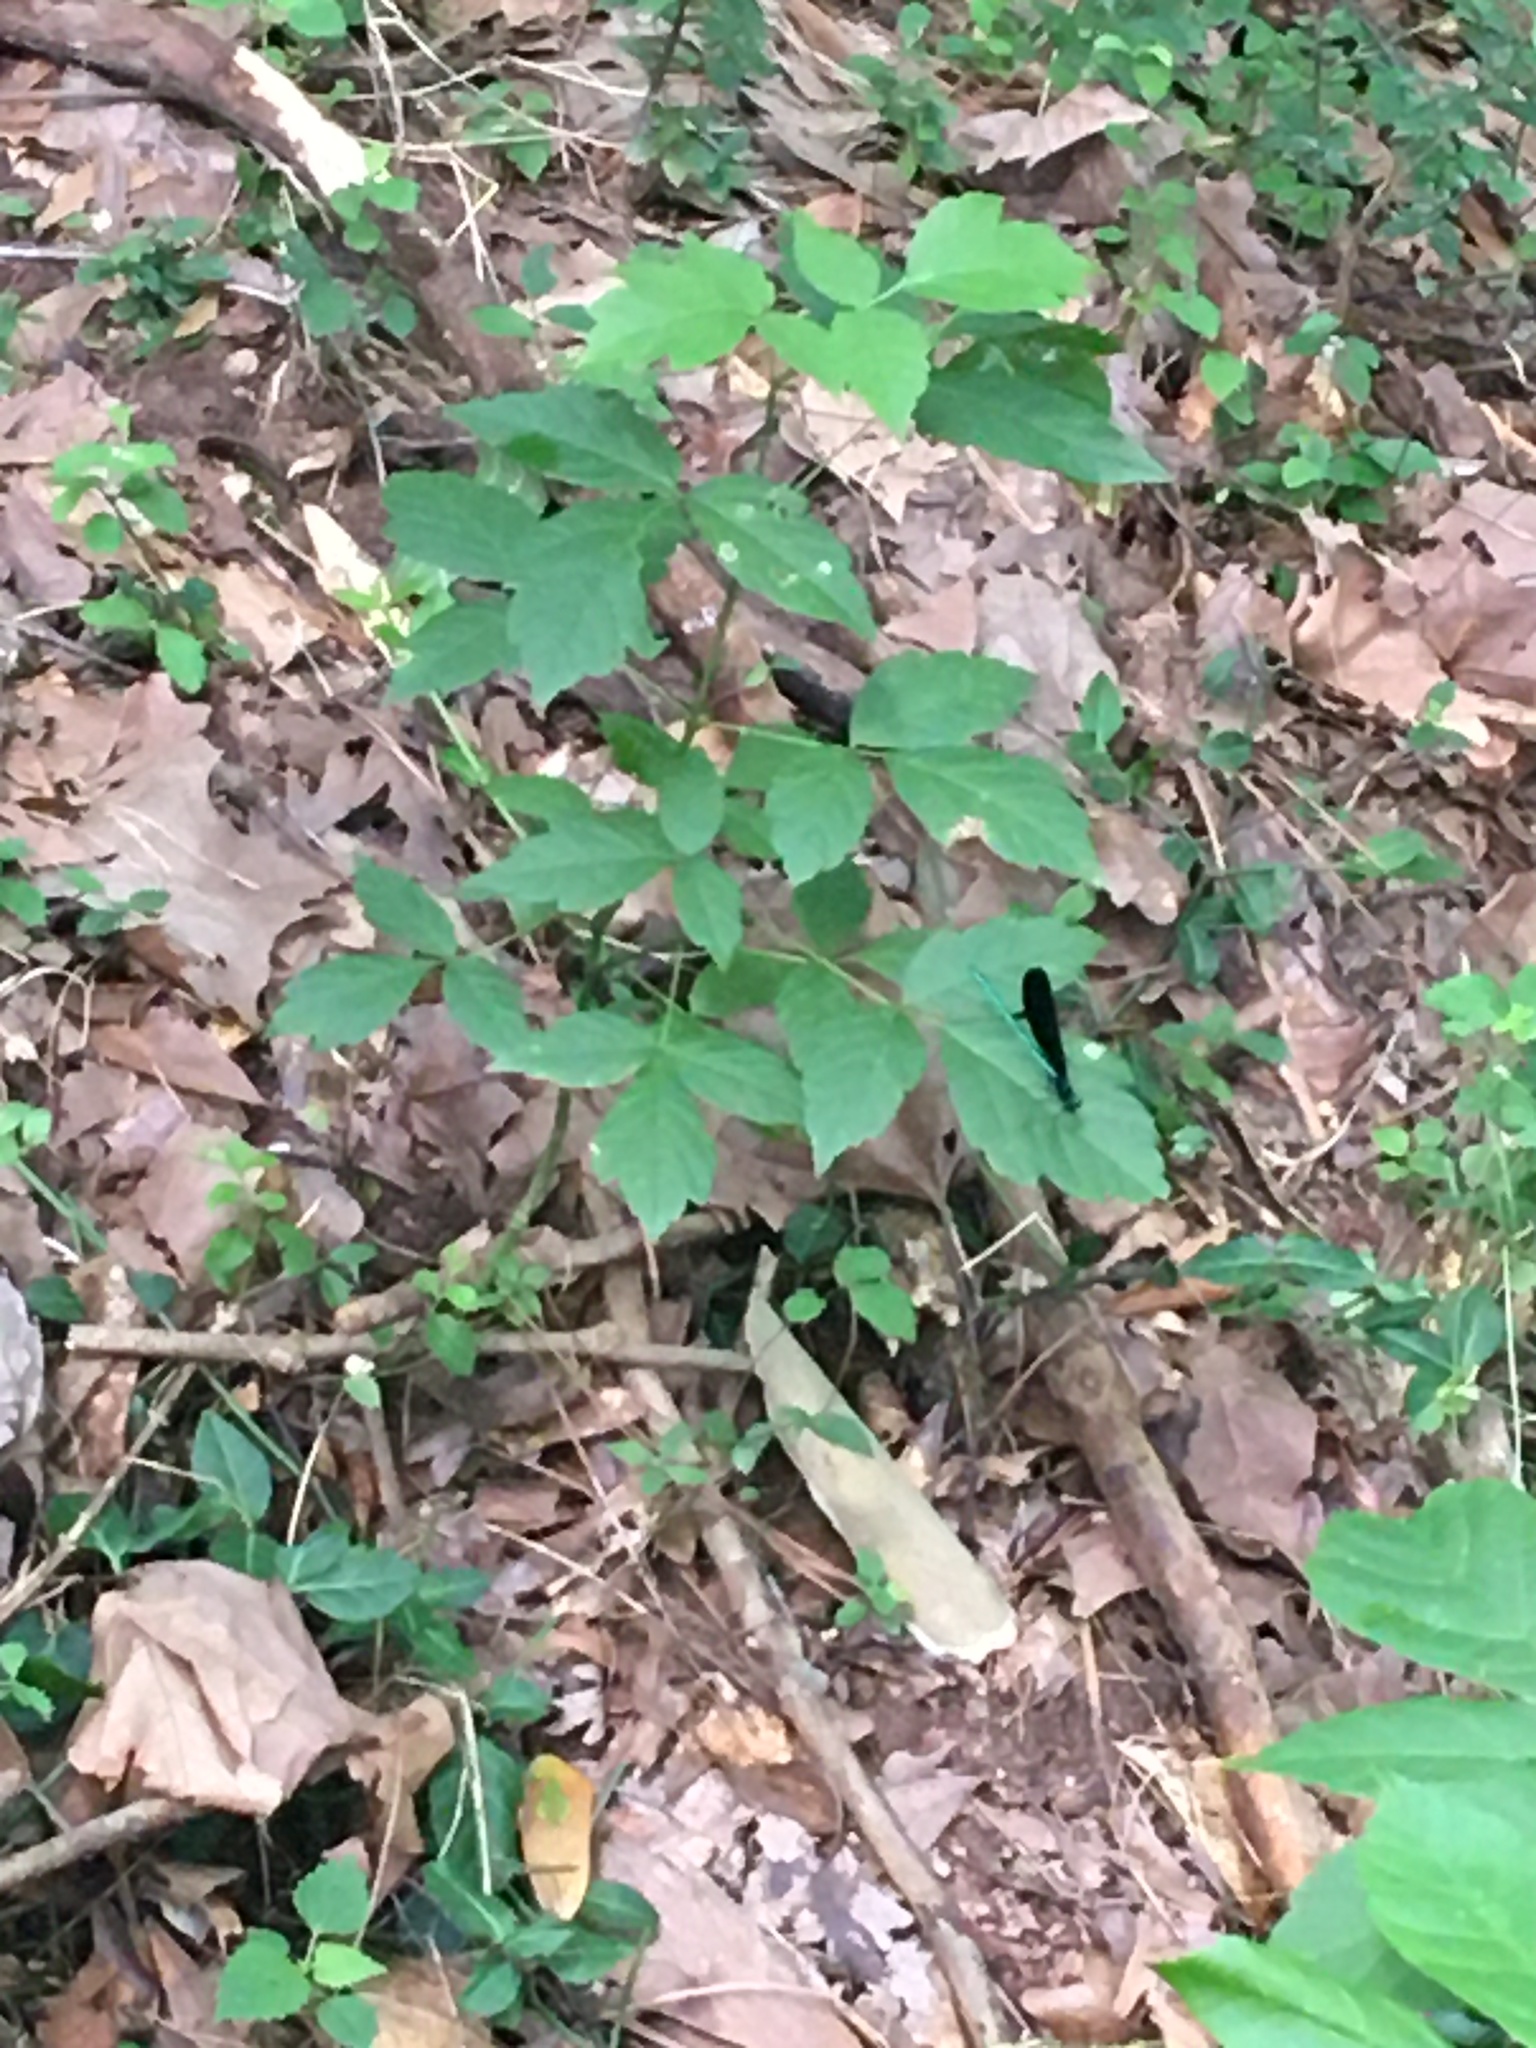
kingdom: Animalia
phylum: Arthropoda
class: Insecta
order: Odonata
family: Calopterygidae
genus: Calopteryx
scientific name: Calopteryx maculata
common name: Ebony jewelwing
